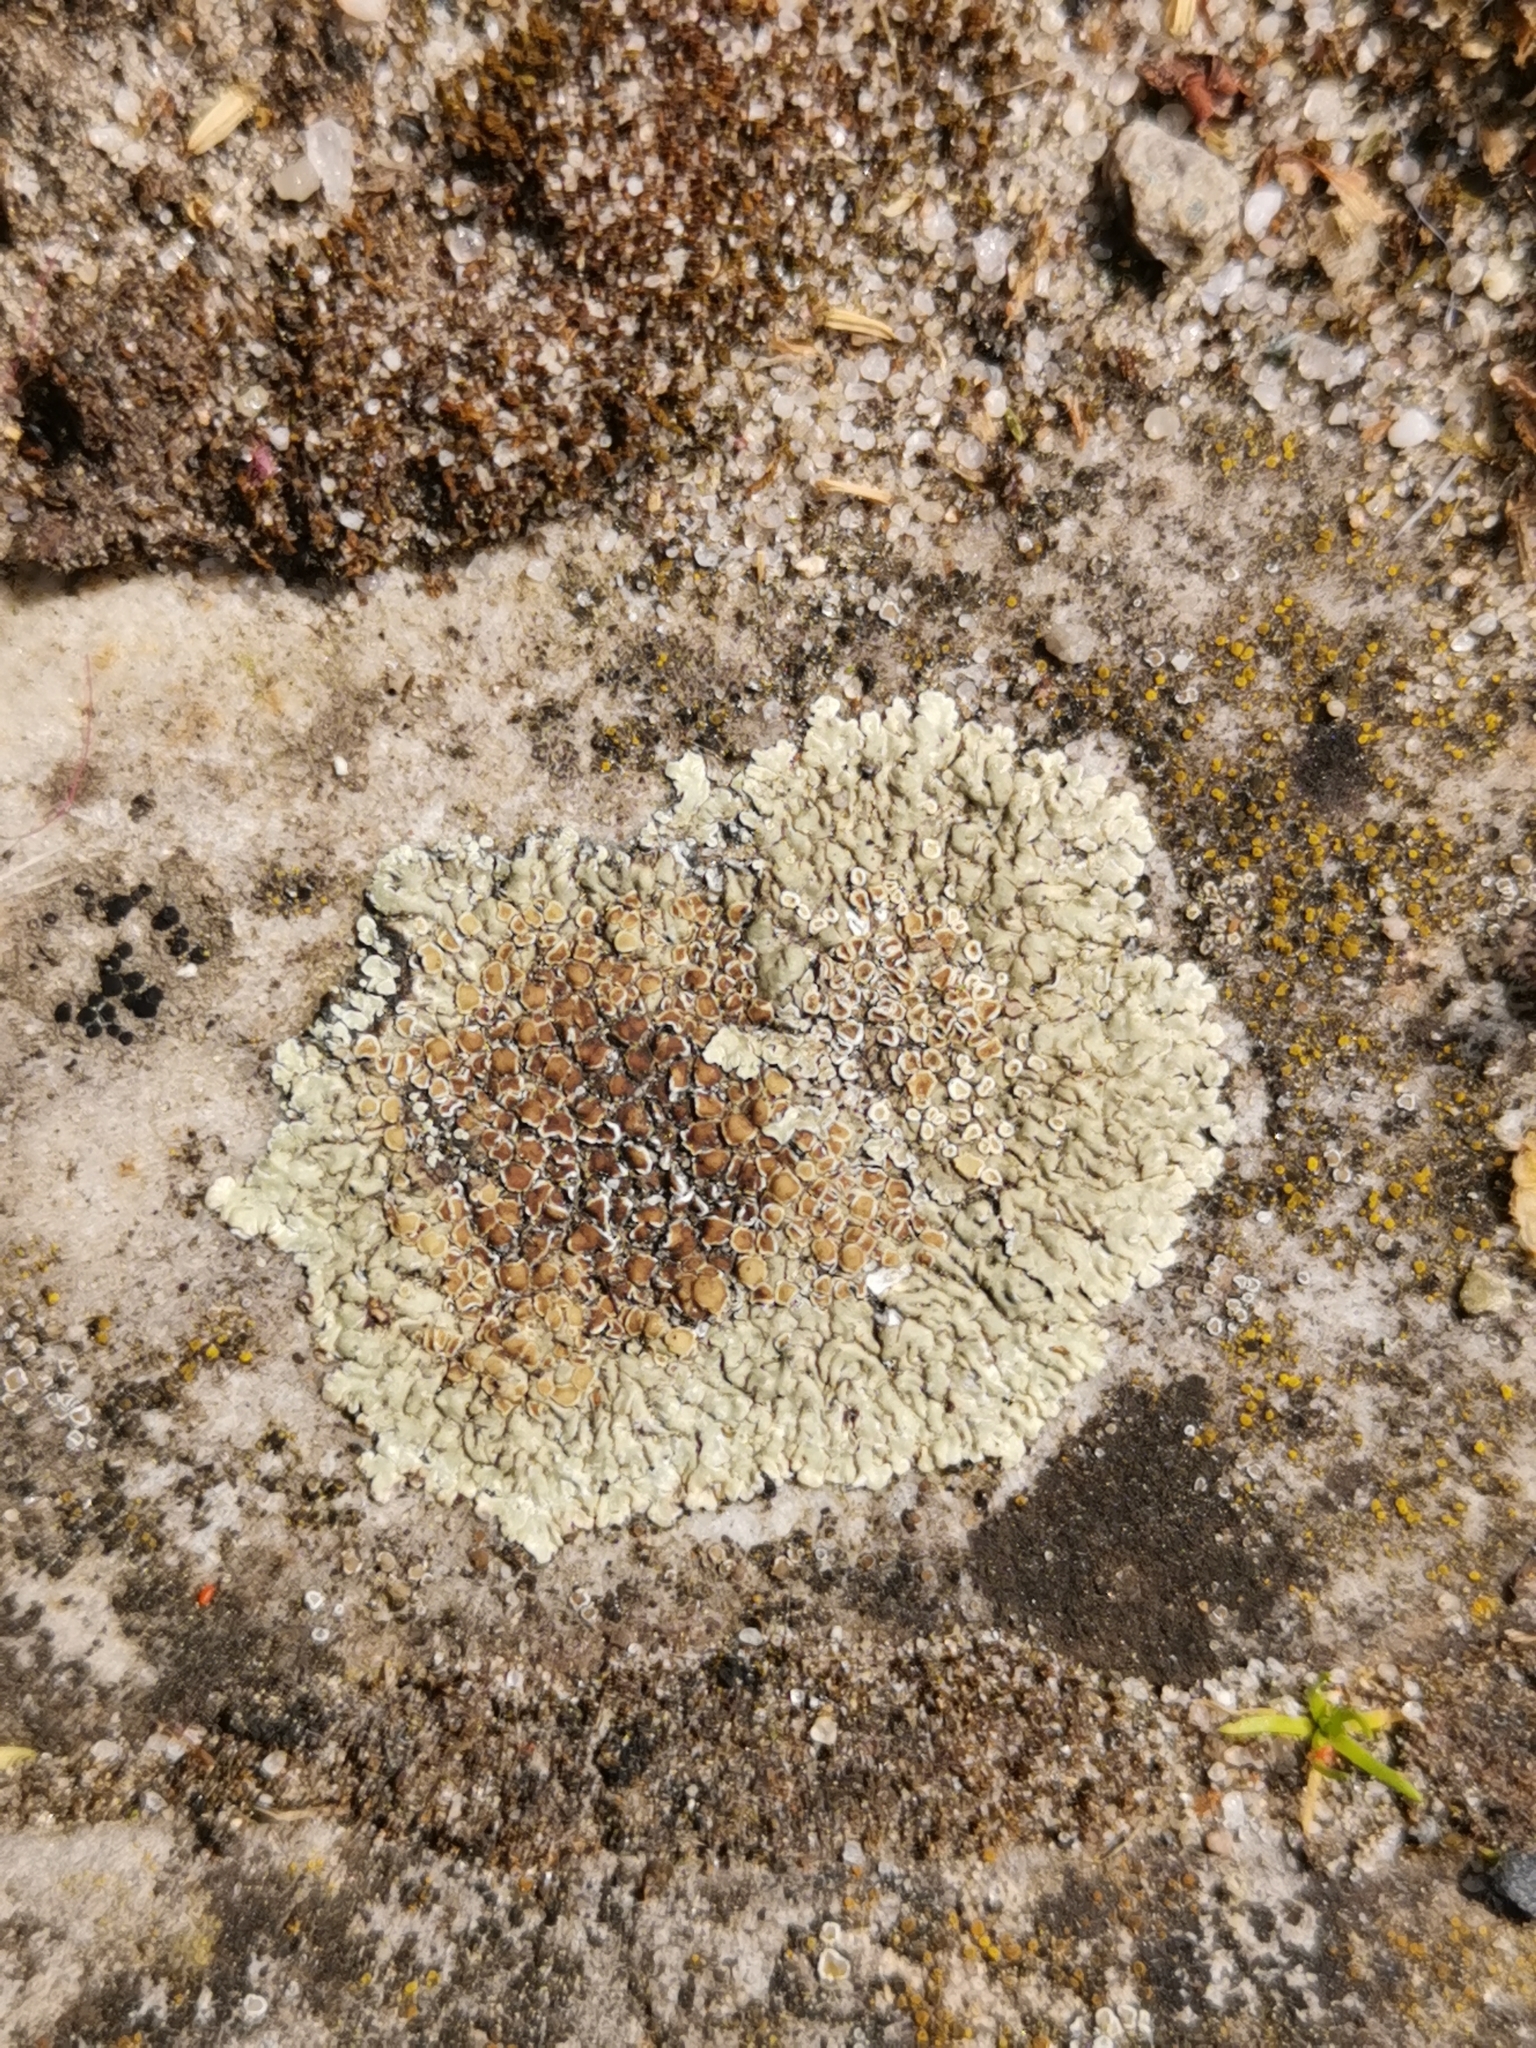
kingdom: Fungi
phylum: Ascomycota
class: Lecanoromycetes
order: Lecanorales
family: Lecanoraceae
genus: Protoparmeliopsis
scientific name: Protoparmeliopsis muralis
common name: Stonewall rim lichen
